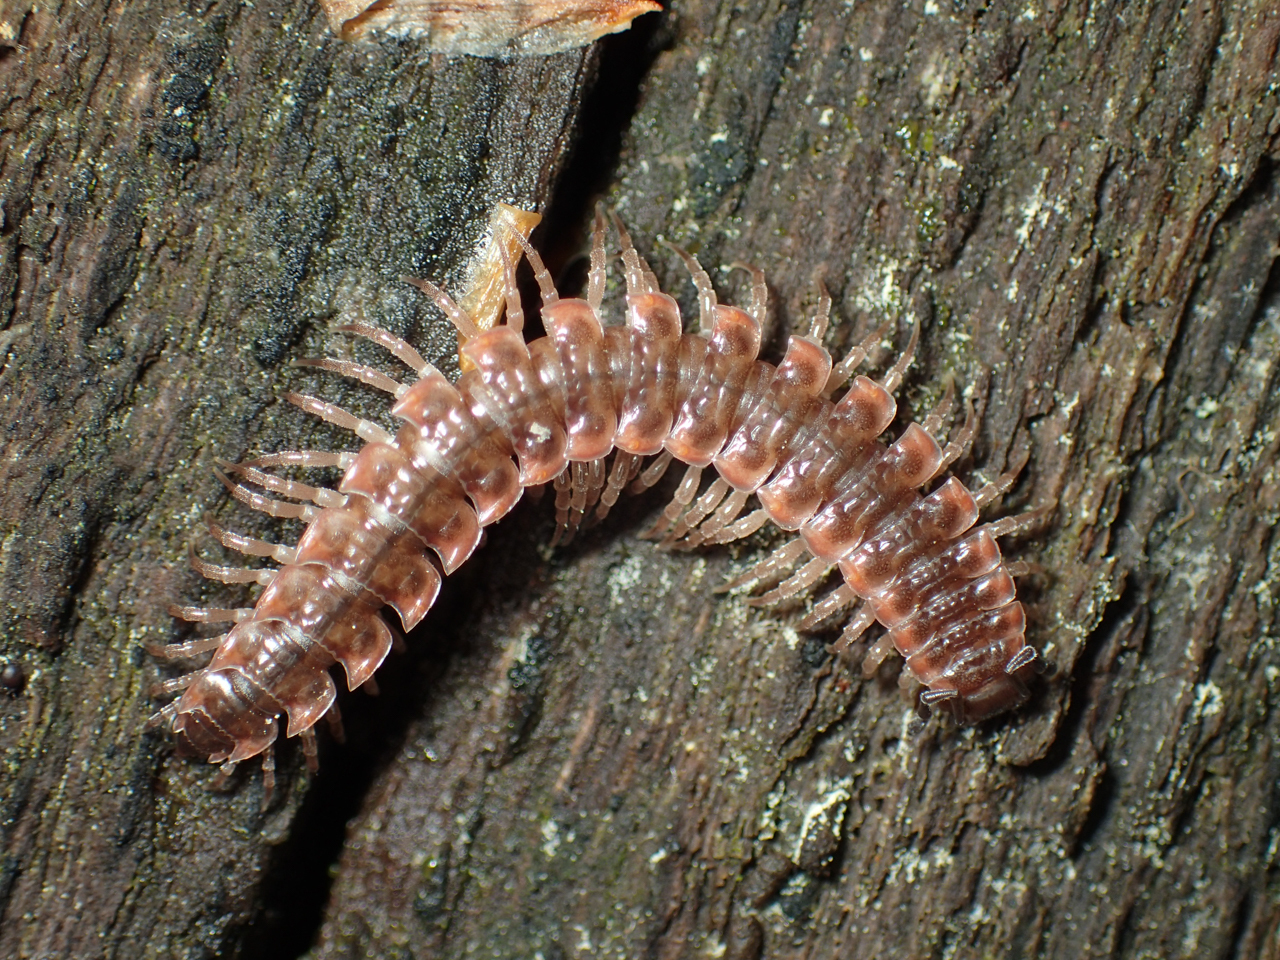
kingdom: Animalia
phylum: Arthropoda
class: Diplopoda
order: Polydesmida
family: Polydesmidae
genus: Pseudopolydesmus
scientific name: Pseudopolydesmus erasus
